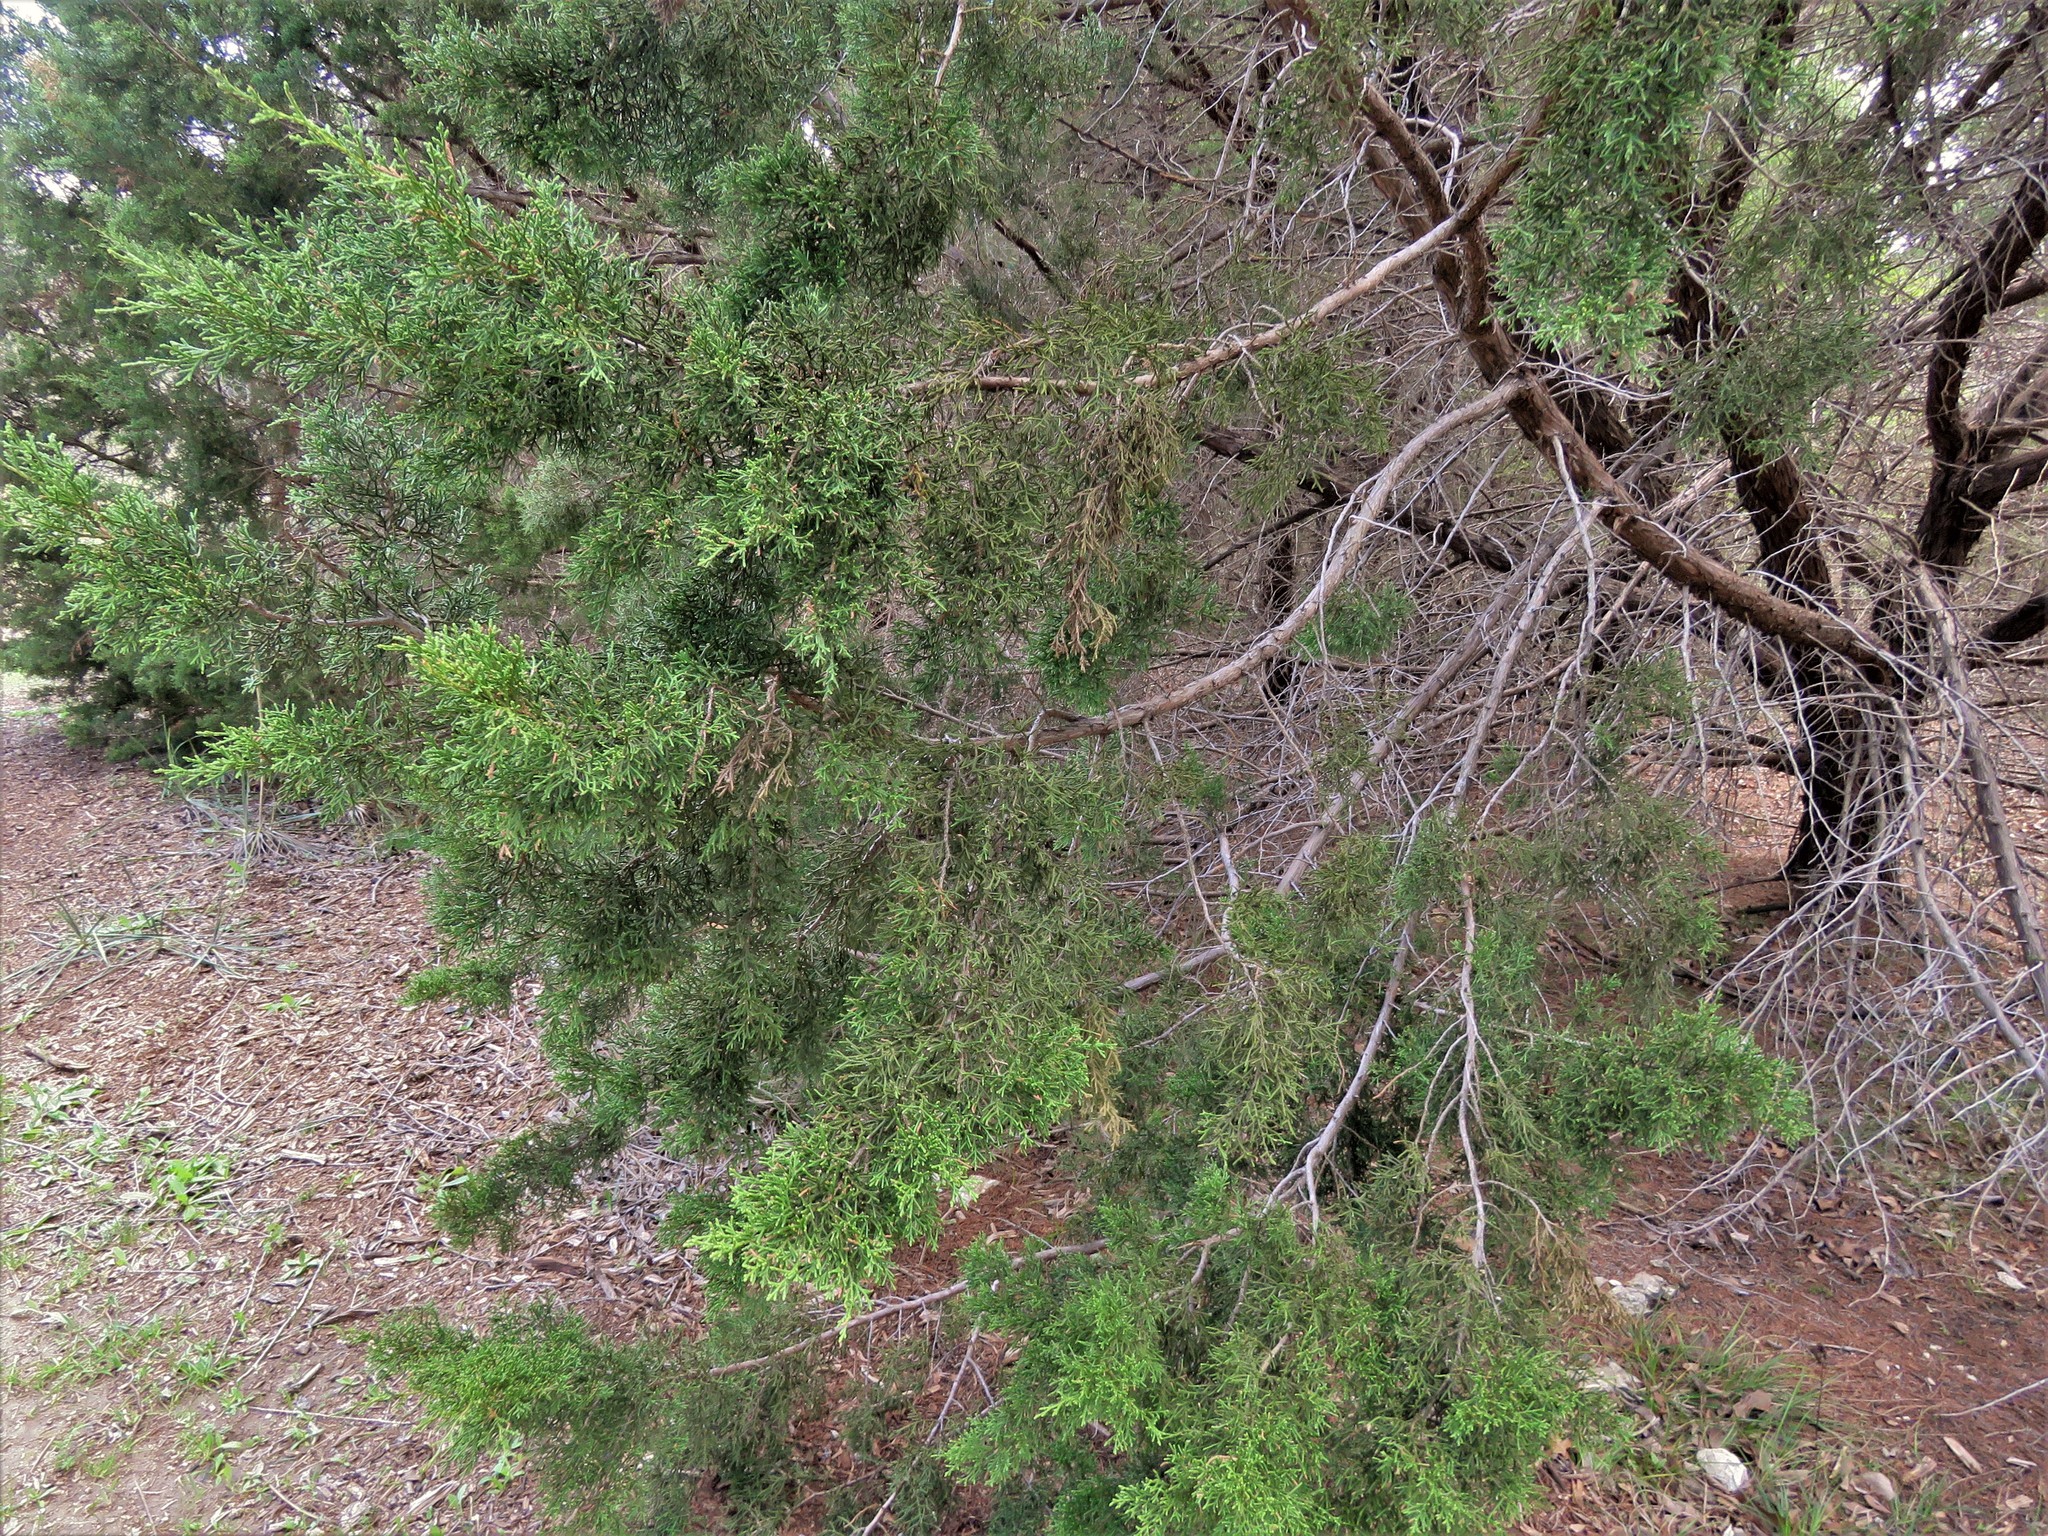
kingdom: Plantae
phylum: Tracheophyta
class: Pinopsida
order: Pinales
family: Cupressaceae
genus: Juniperus
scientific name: Juniperus virginiana
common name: Red juniper
